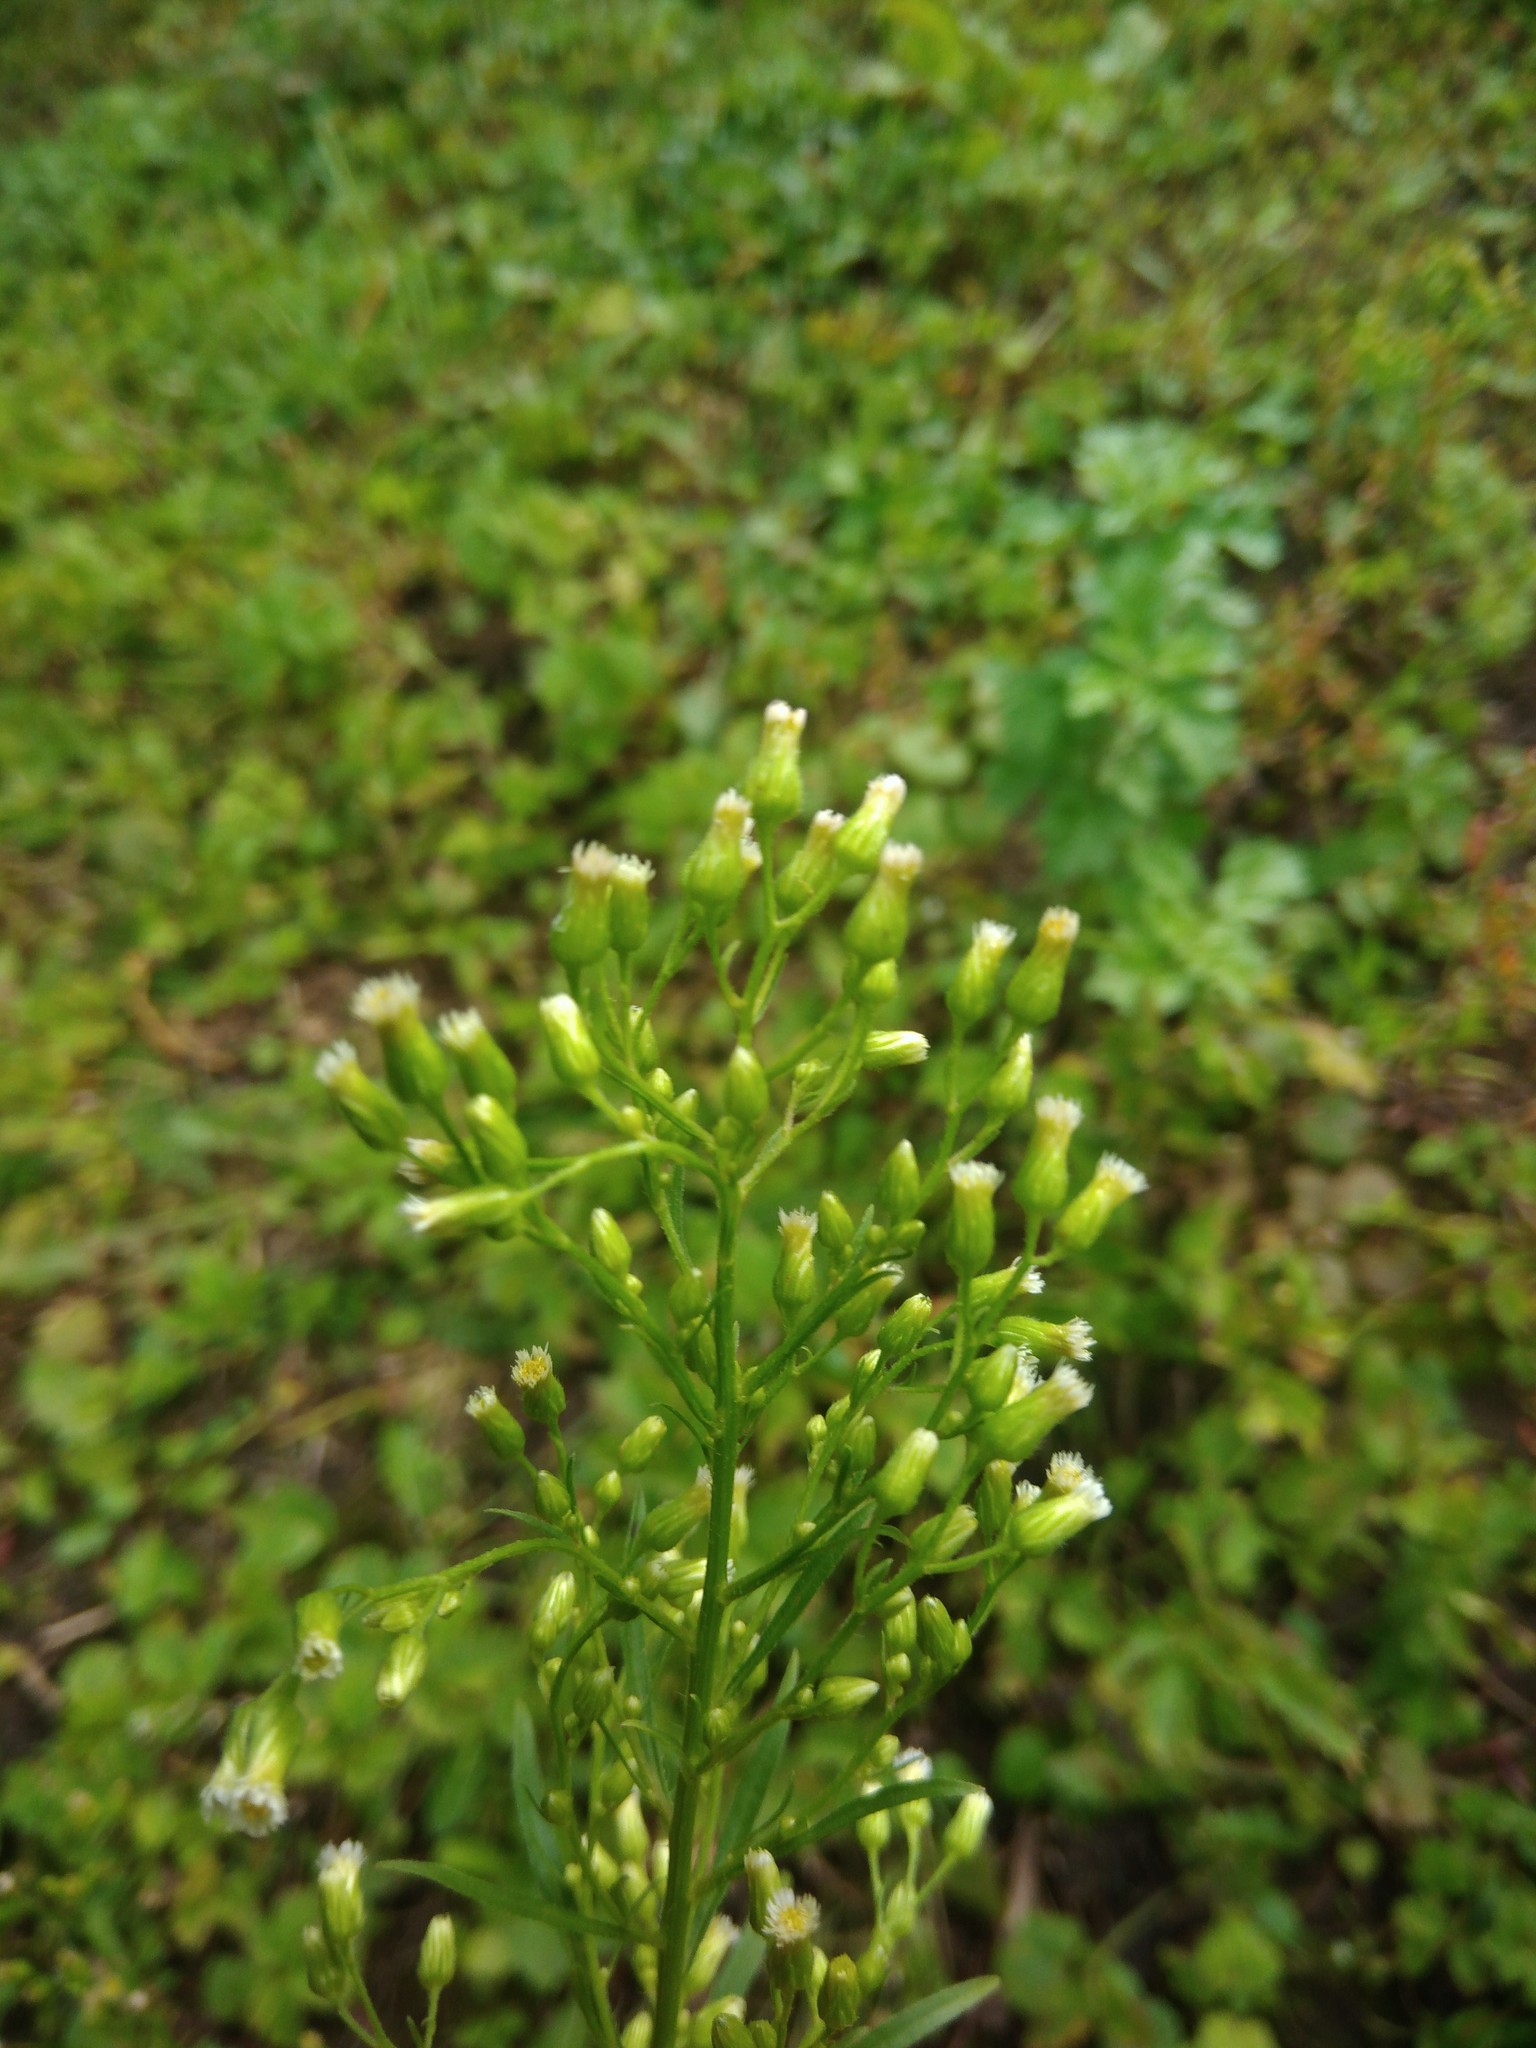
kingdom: Plantae
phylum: Tracheophyta
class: Magnoliopsida
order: Asterales
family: Asteraceae
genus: Erigeron
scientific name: Erigeron canadensis
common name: Canadian fleabane
